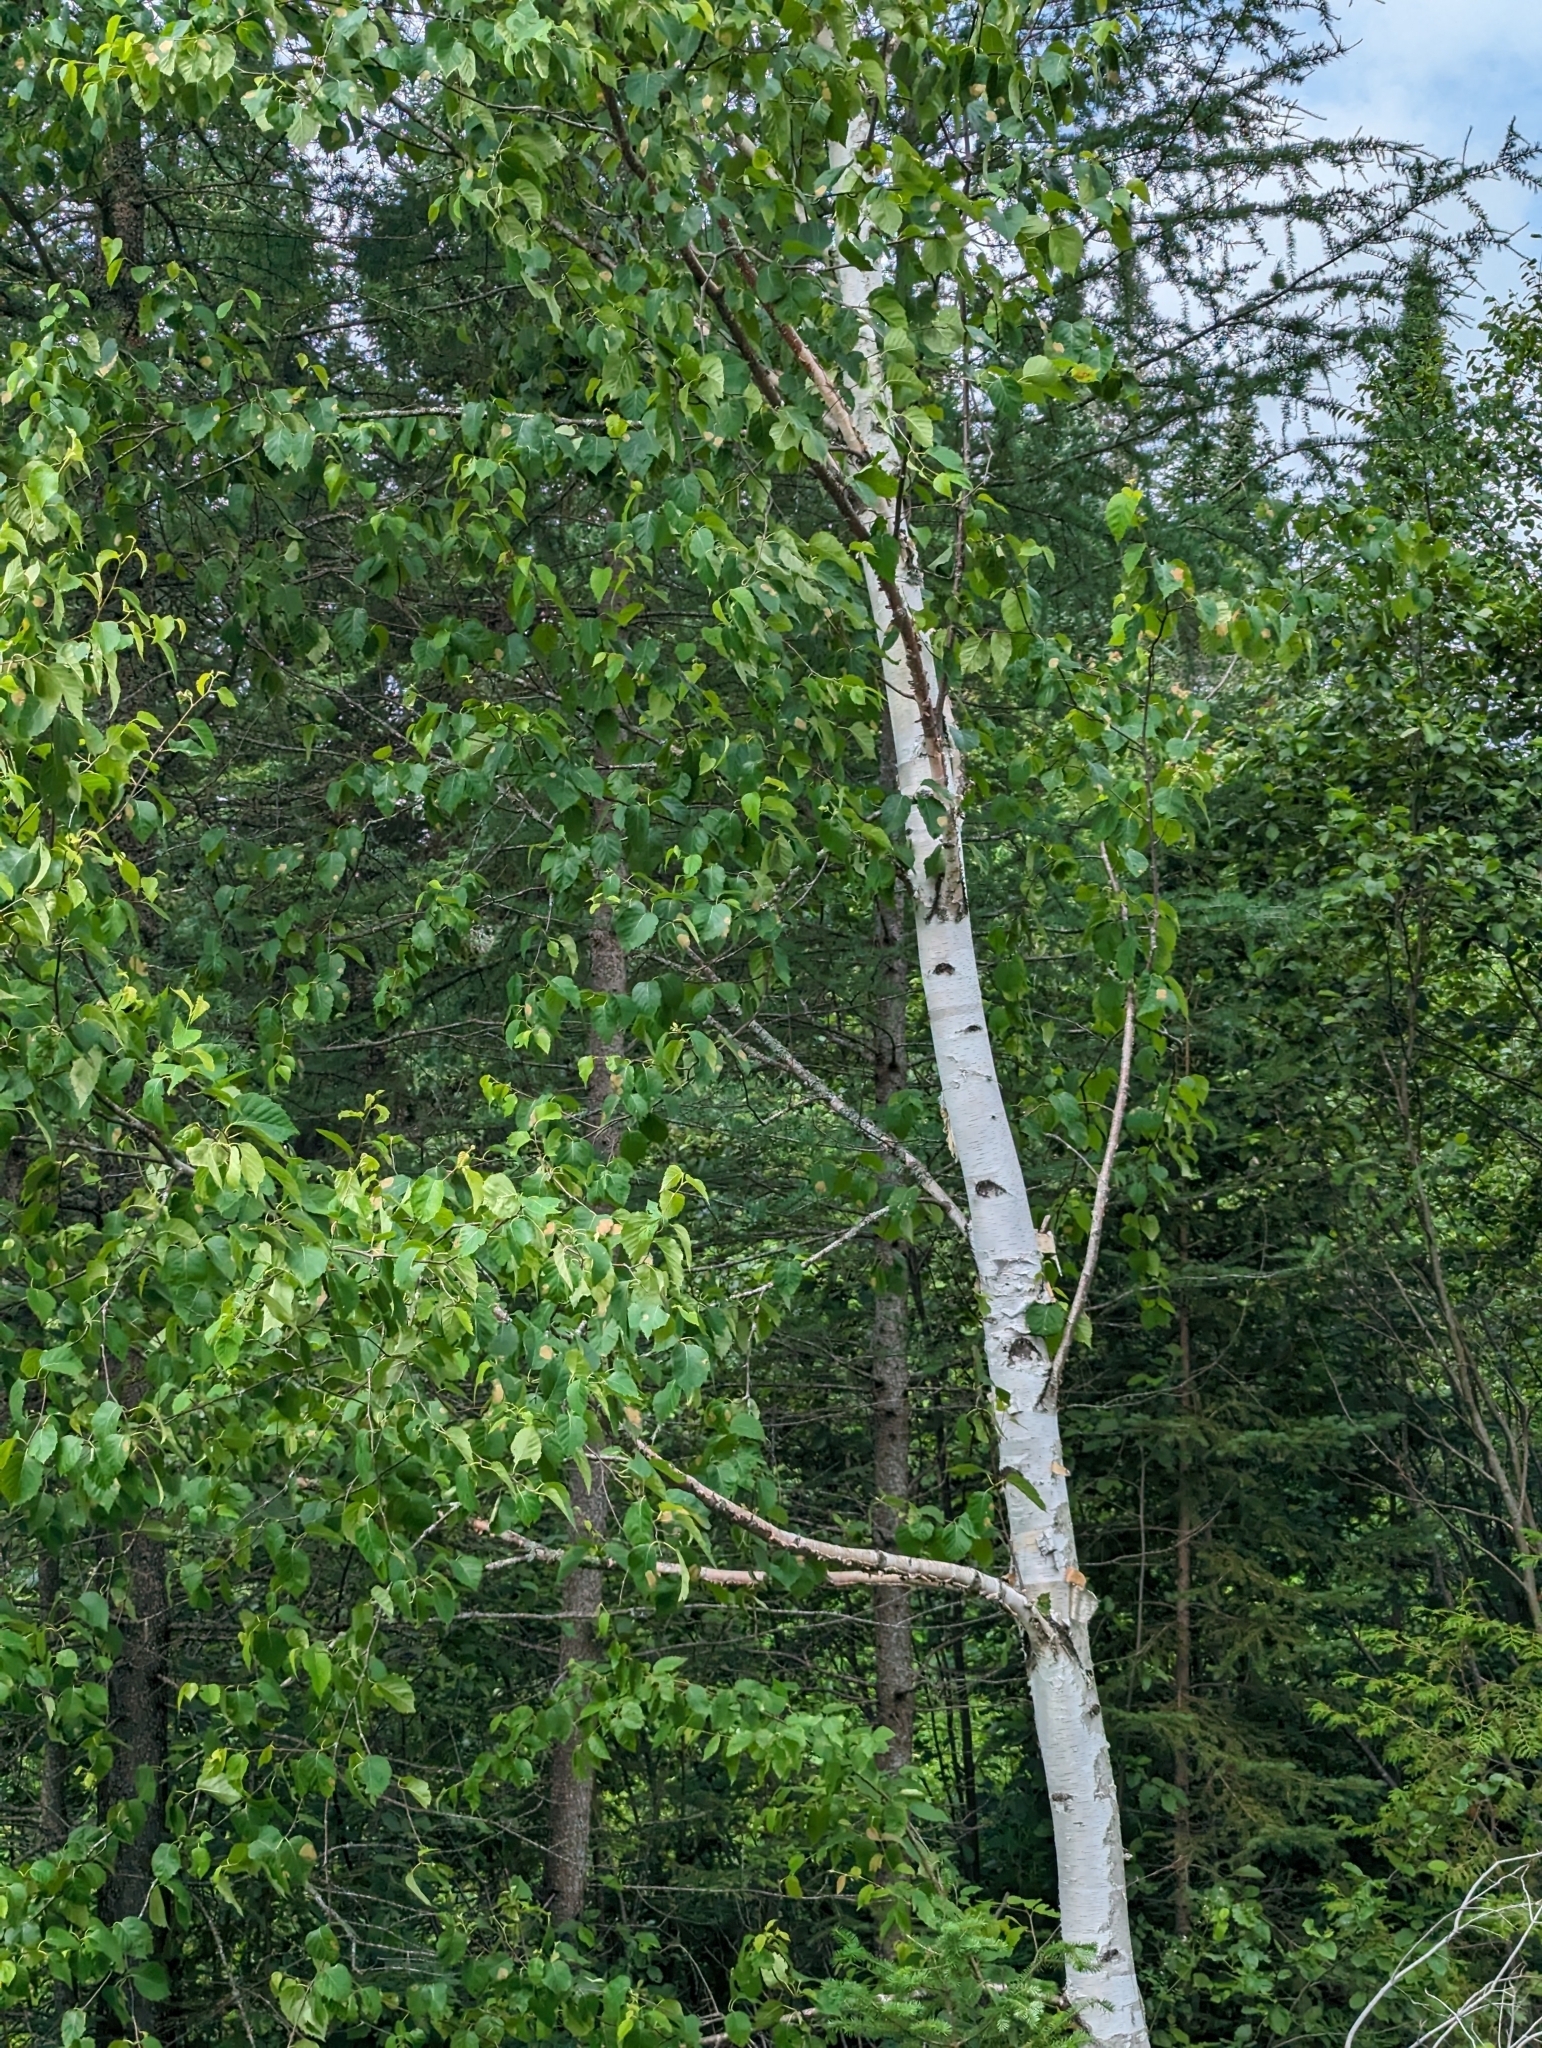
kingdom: Plantae
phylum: Tracheophyta
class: Magnoliopsida
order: Fagales
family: Betulaceae
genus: Betula
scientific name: Betula papyrifera
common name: Paper birch
